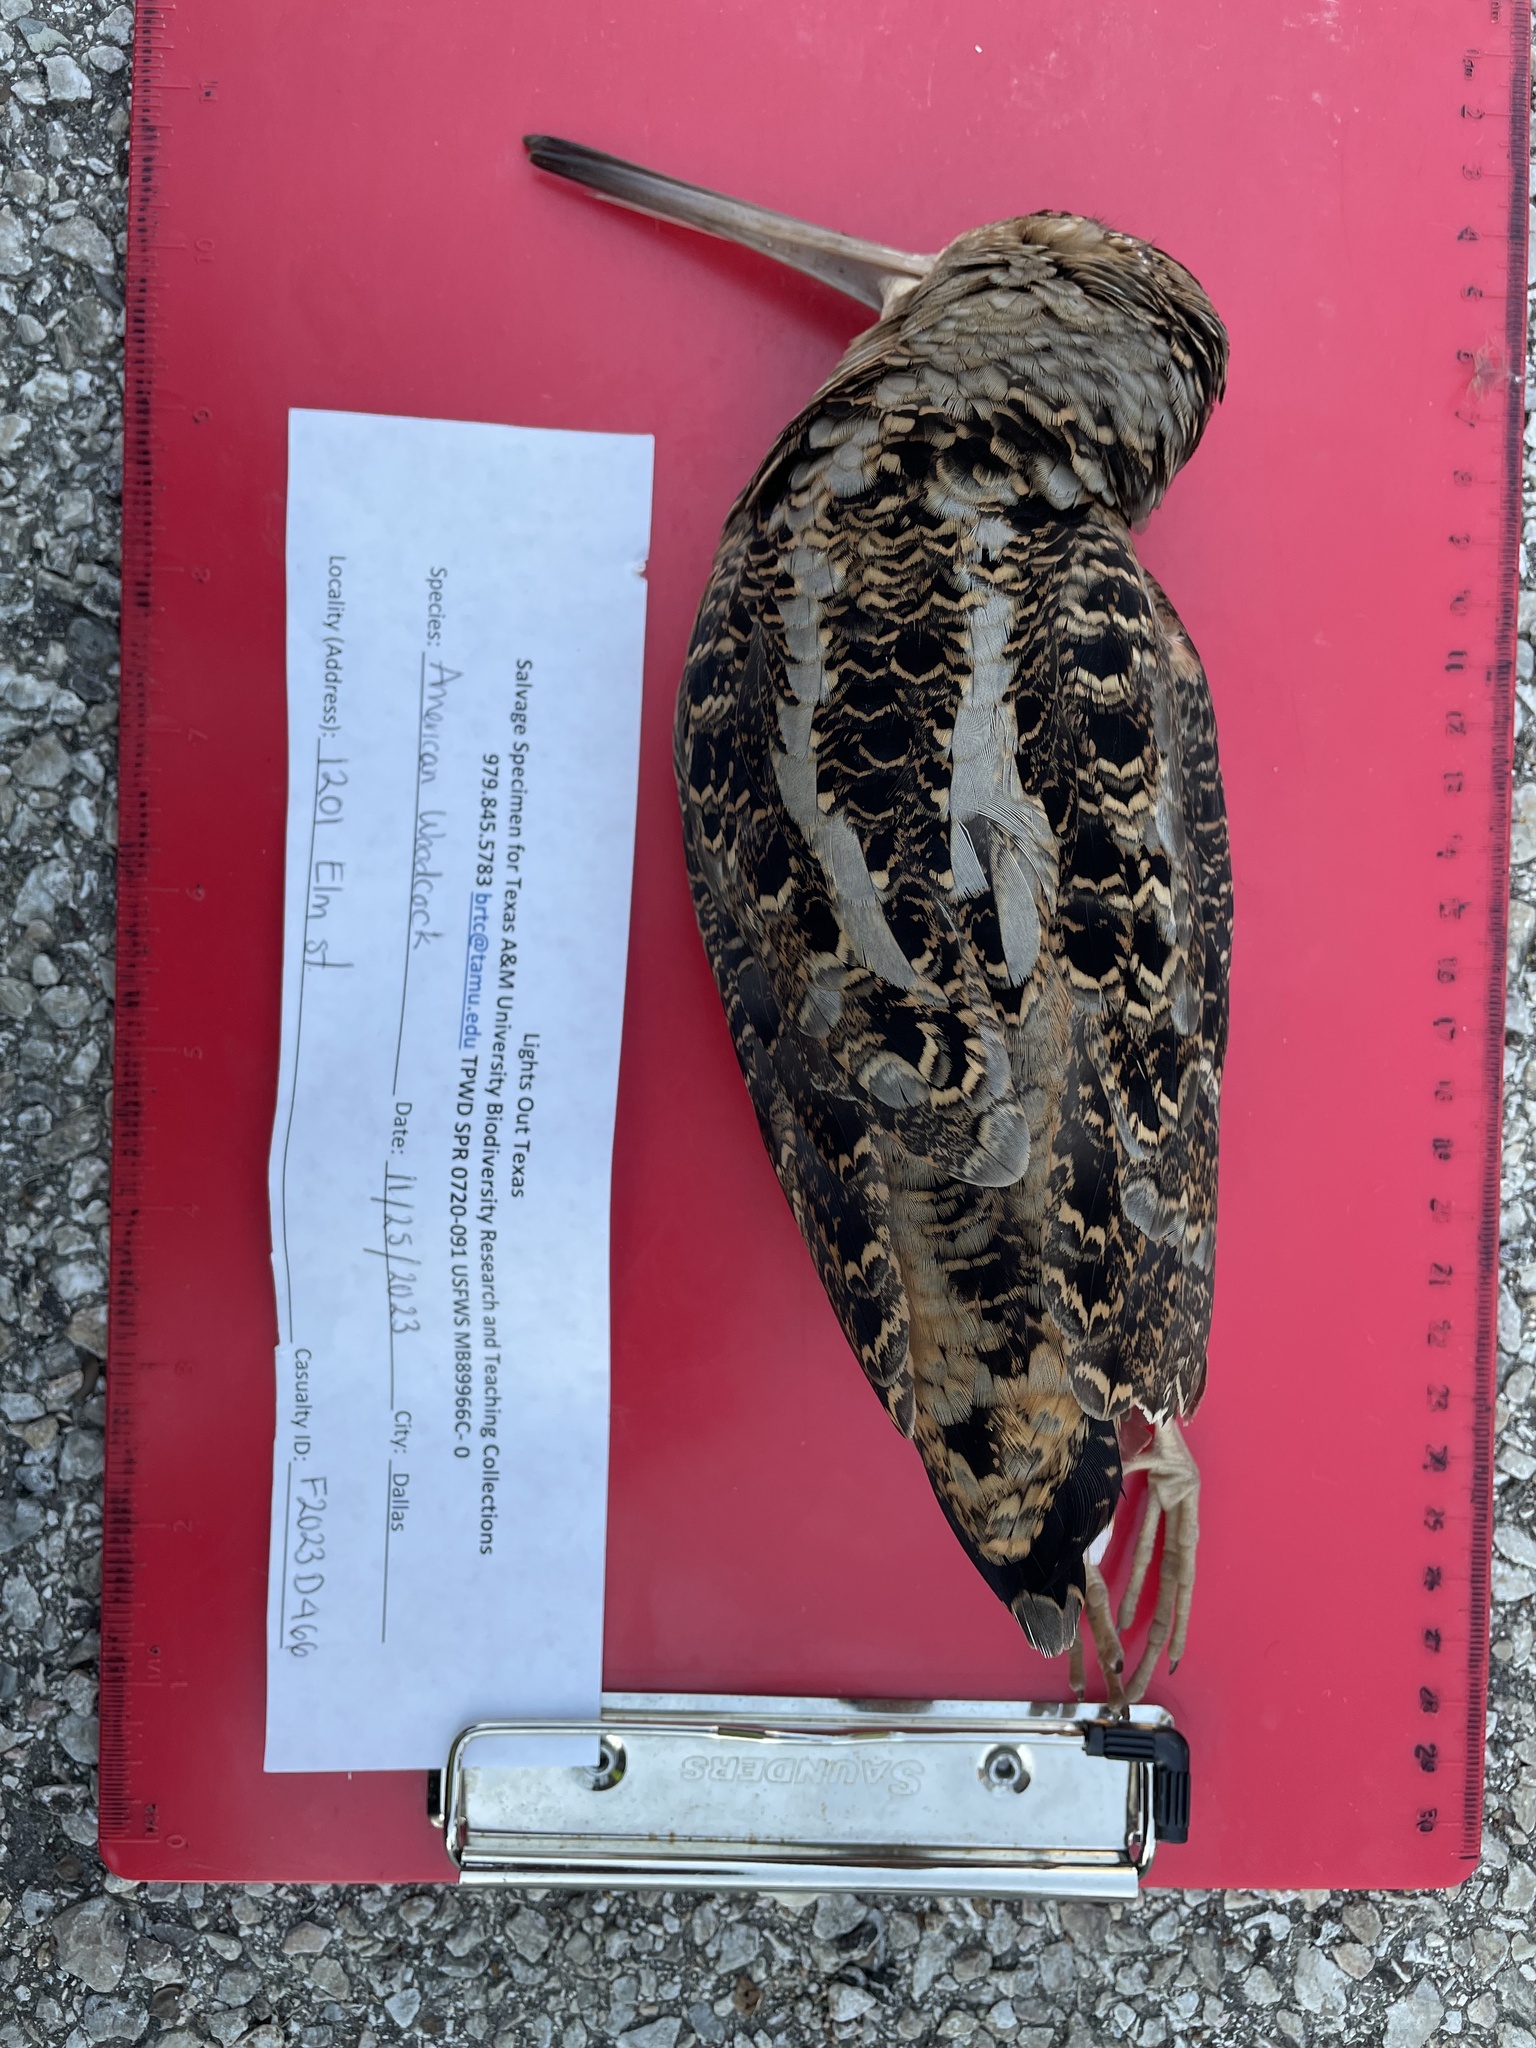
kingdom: Animalia
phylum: Chordata
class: Aves
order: Charadriiformes
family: Scolopacidae
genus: Scolopax
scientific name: Scolopax minor
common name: American woodcock
